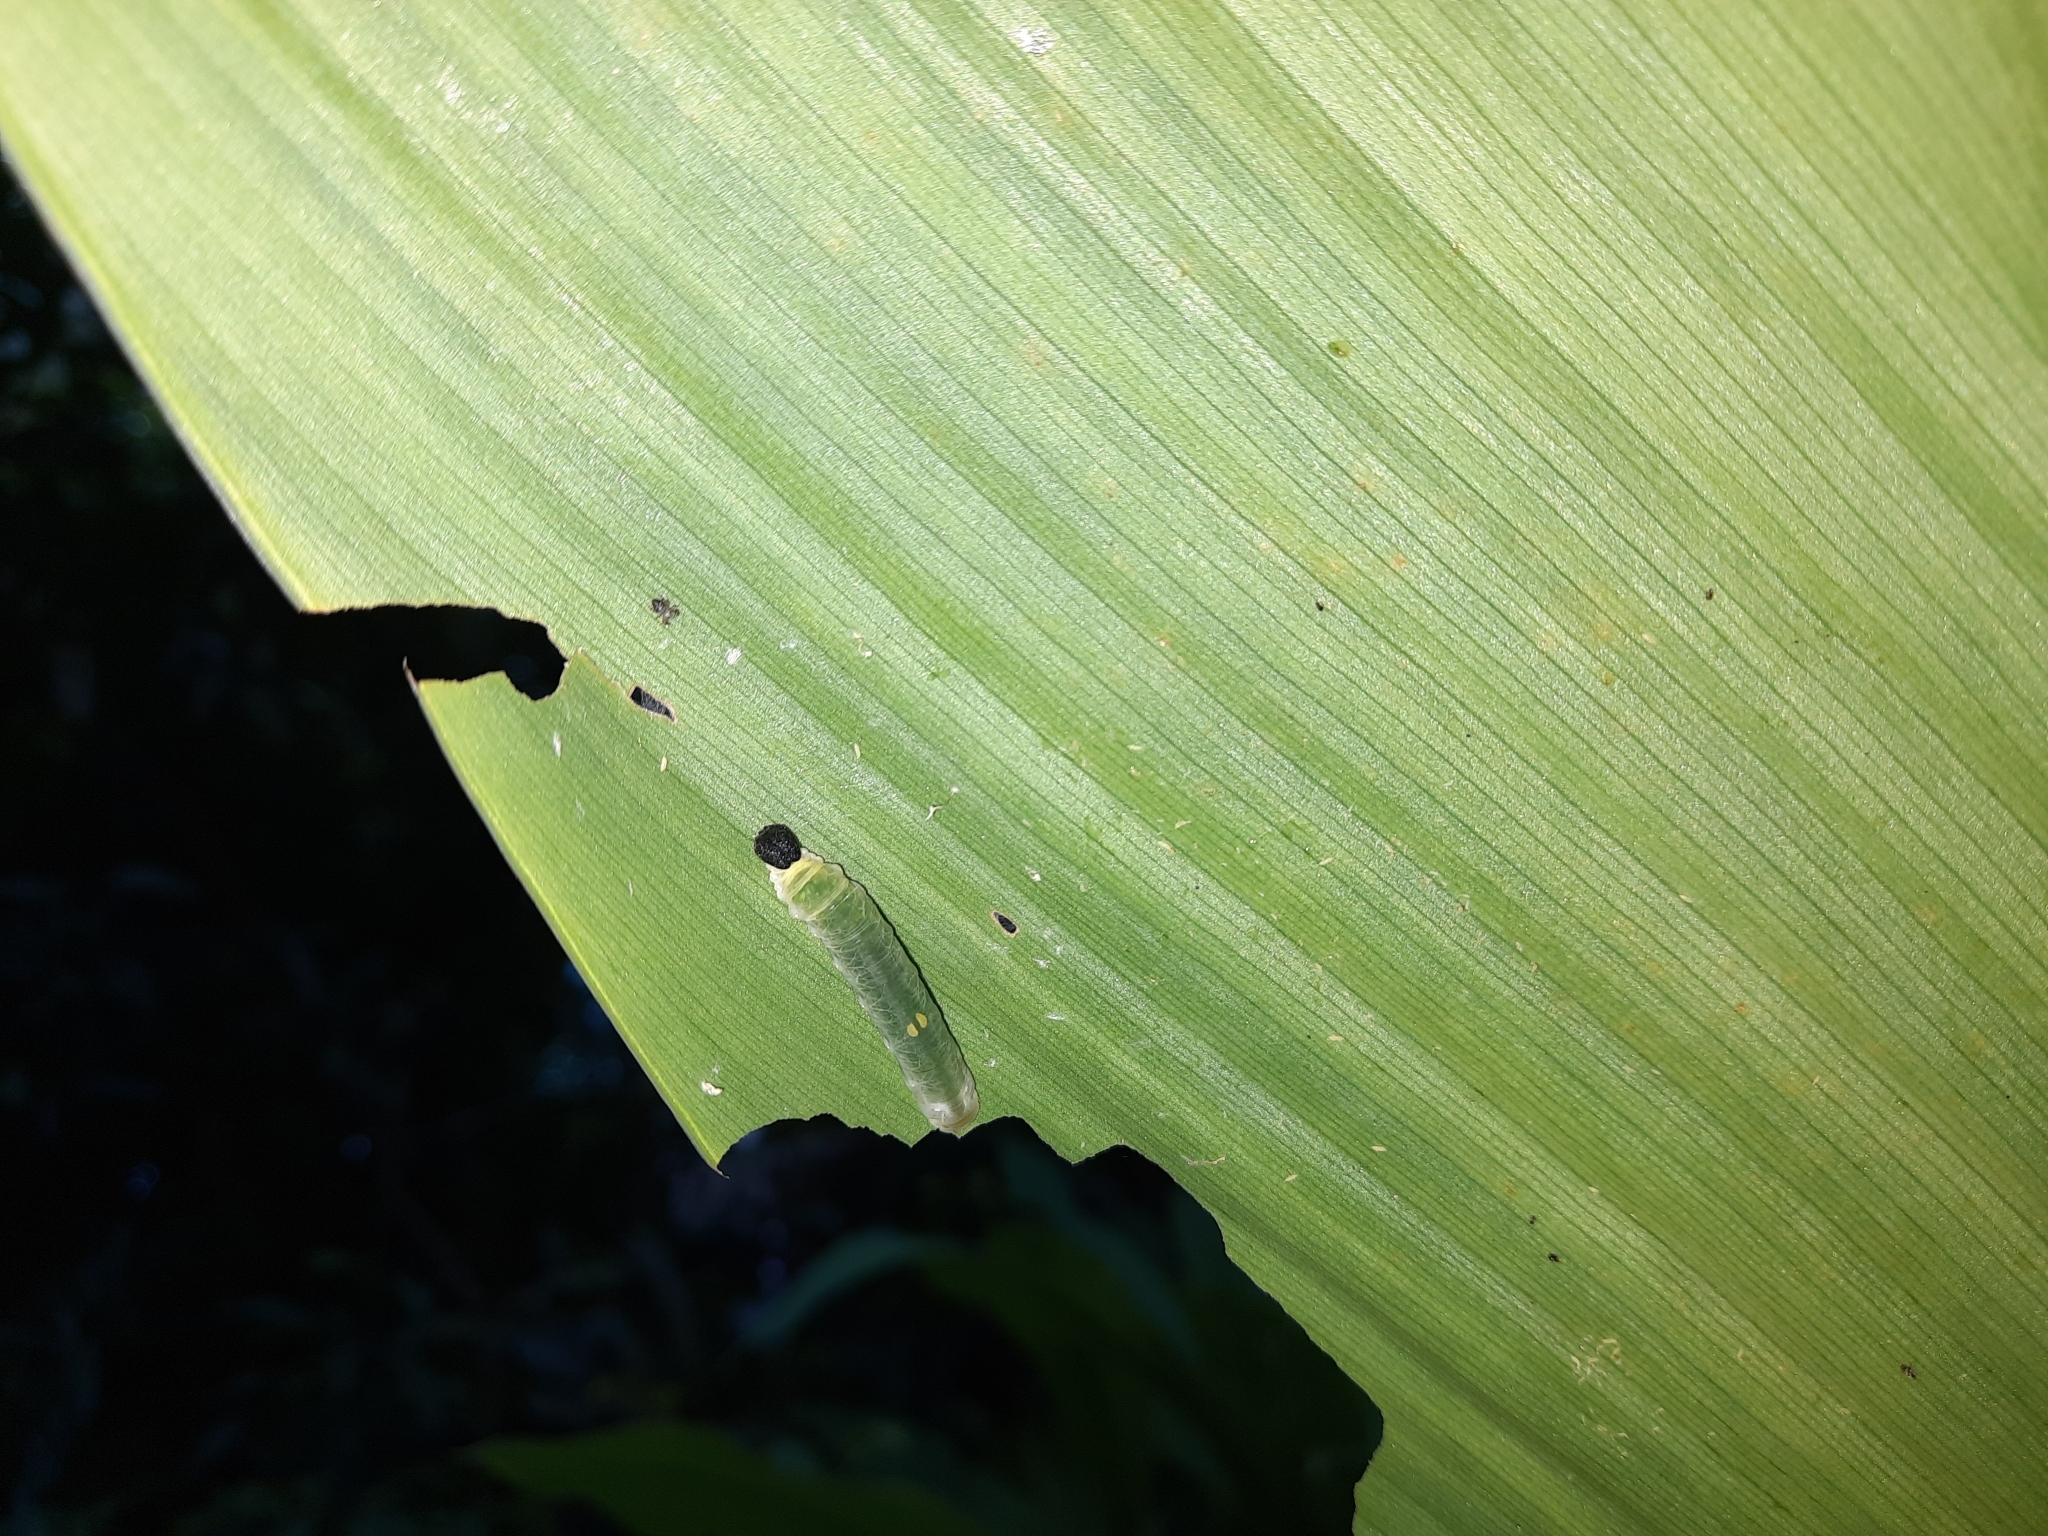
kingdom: Animalia
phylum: Arthropoda
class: Insecta
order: Lepidoptera
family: Hesperiidae
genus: Udaspes
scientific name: Udaspes folus
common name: Grass demon
